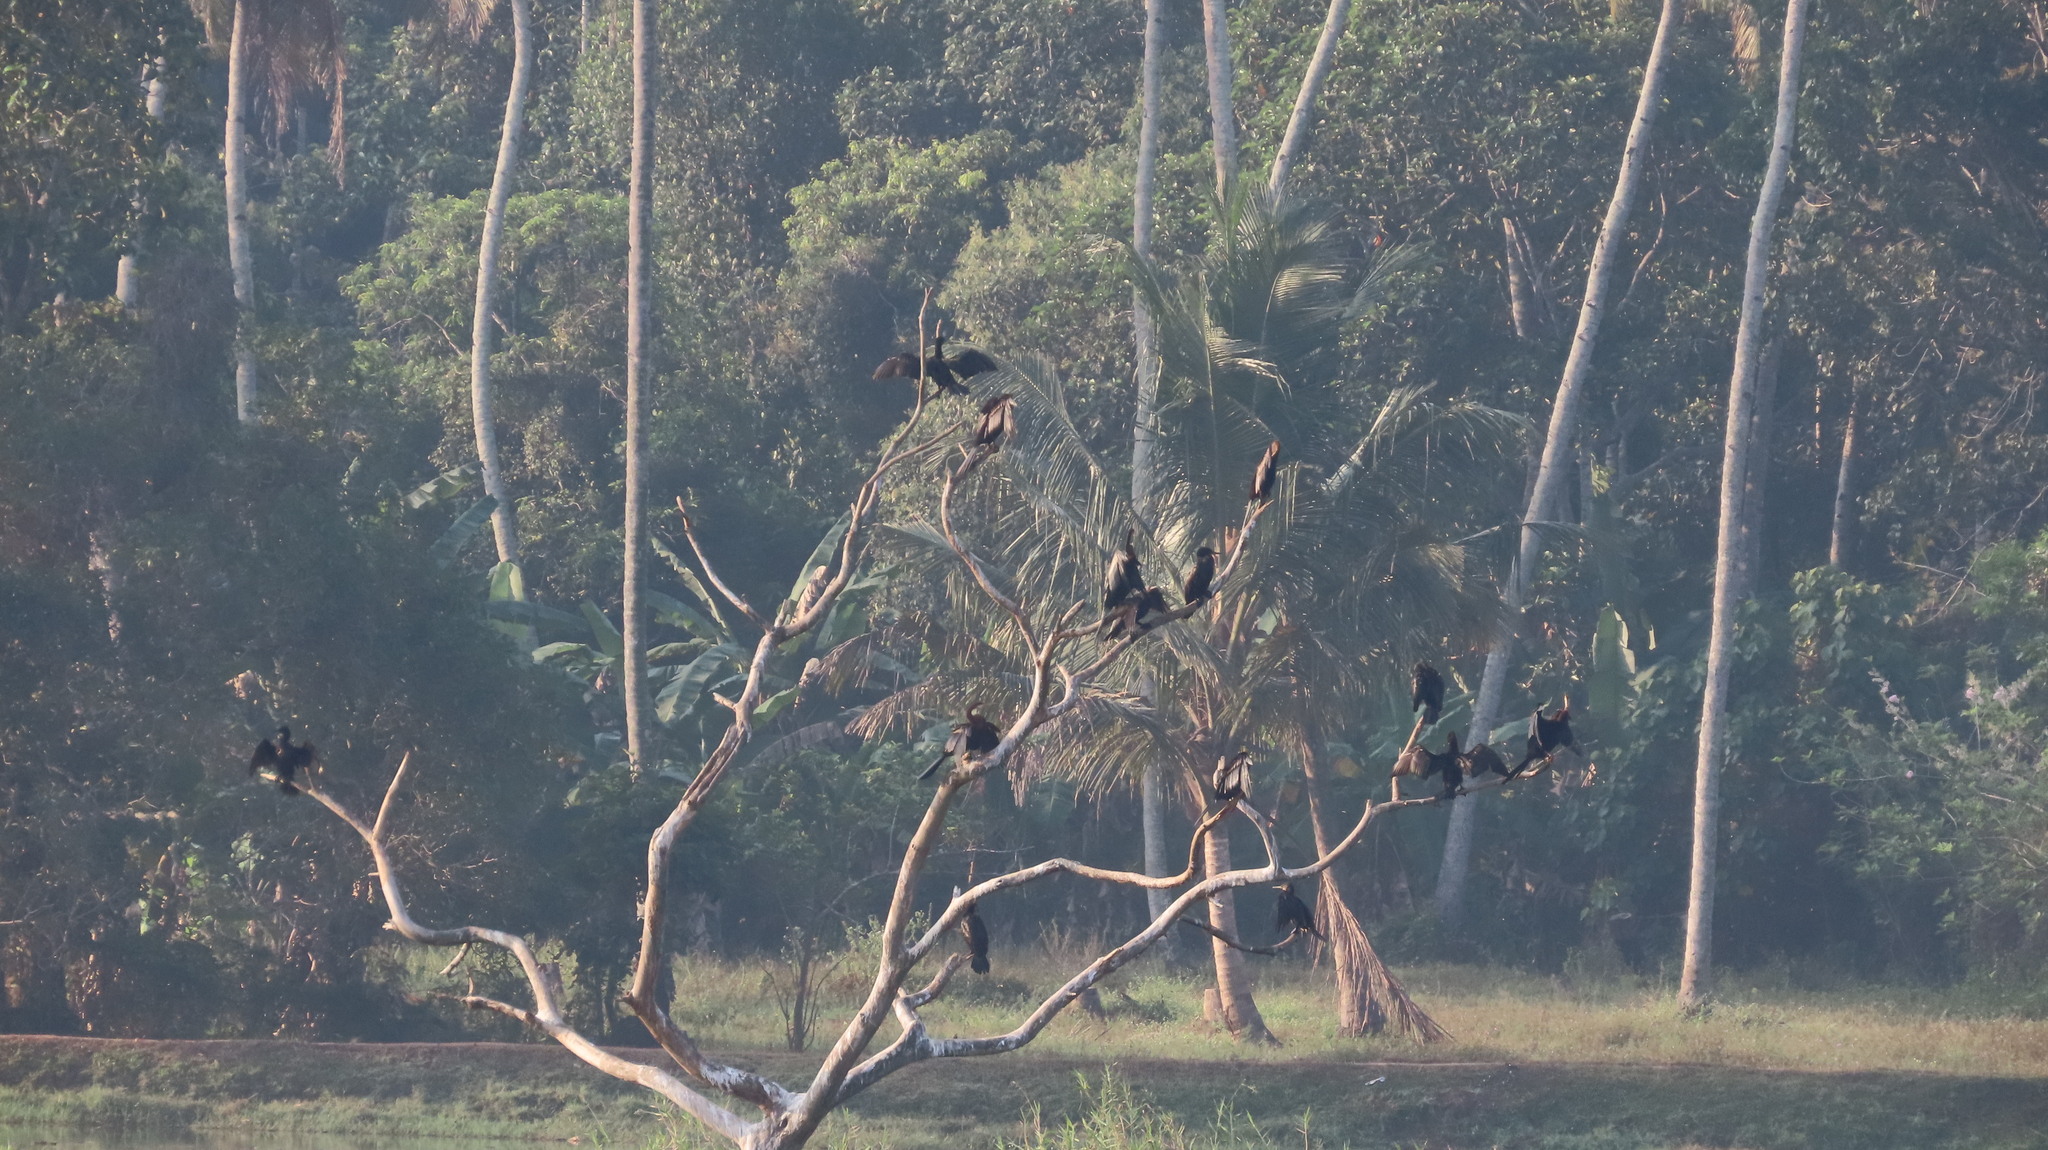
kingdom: Animalia
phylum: Chordata
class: Aves
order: Suliformes
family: Anhingidae
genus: Anhinga
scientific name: Anhinga melanogaster
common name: Oriental darter
